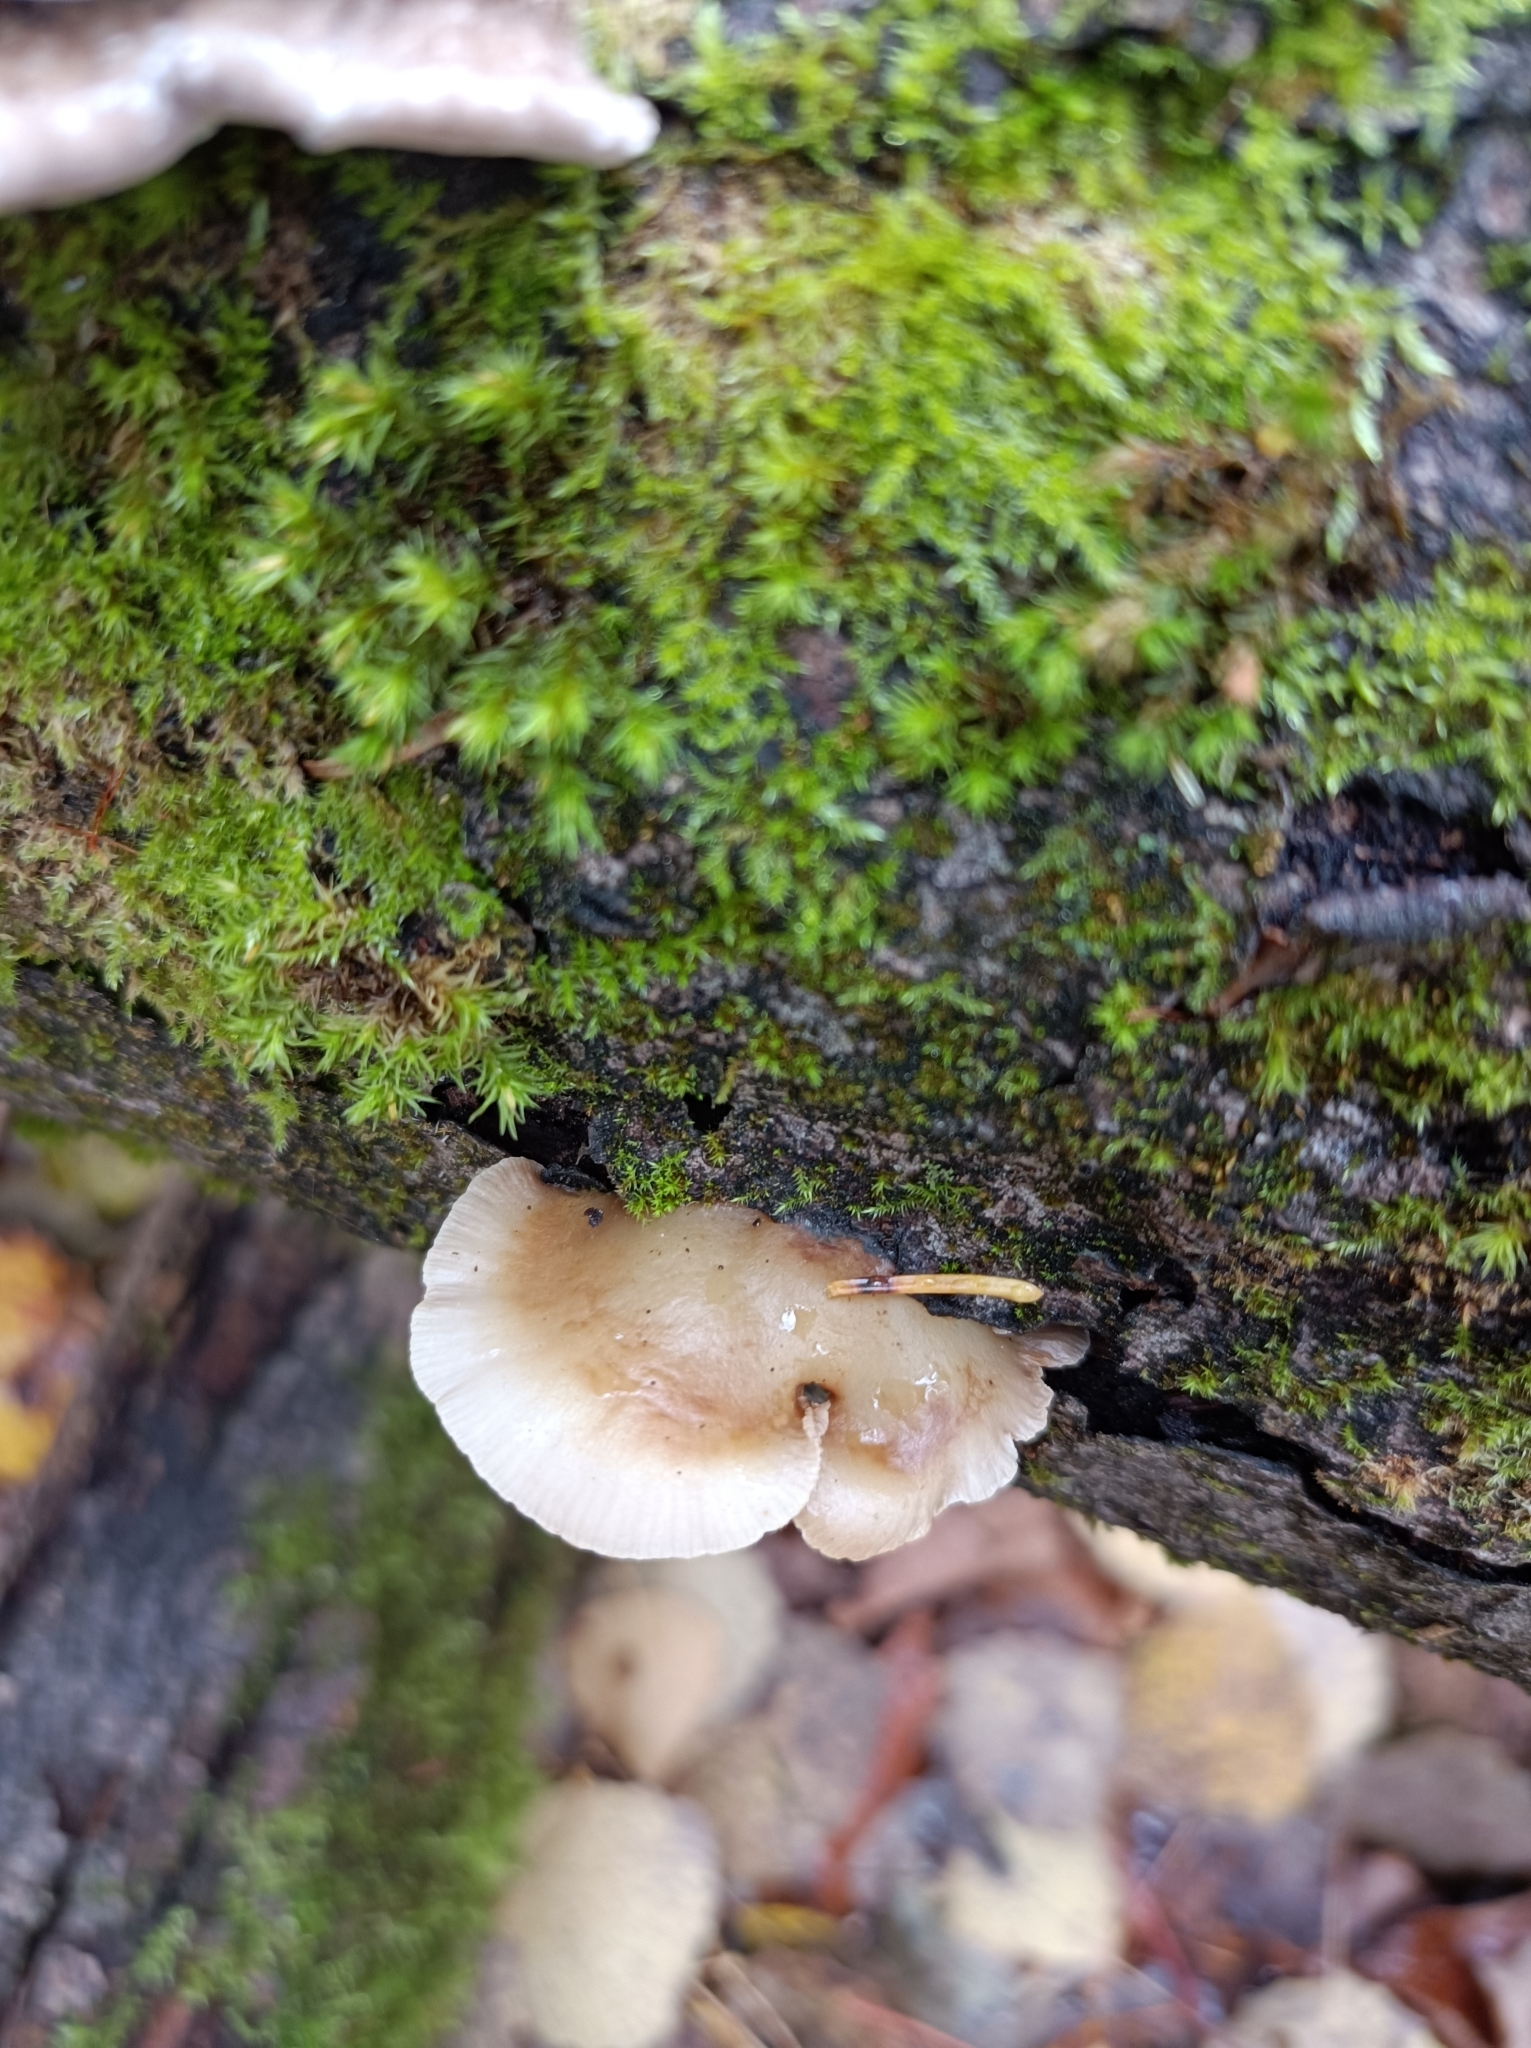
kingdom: Fungi
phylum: Basidiomycota
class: Agaricomycetes
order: Agaricales
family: Crepidotaceae
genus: Crepidotus
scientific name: Crepidotus mollis
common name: Peeling oysterling
